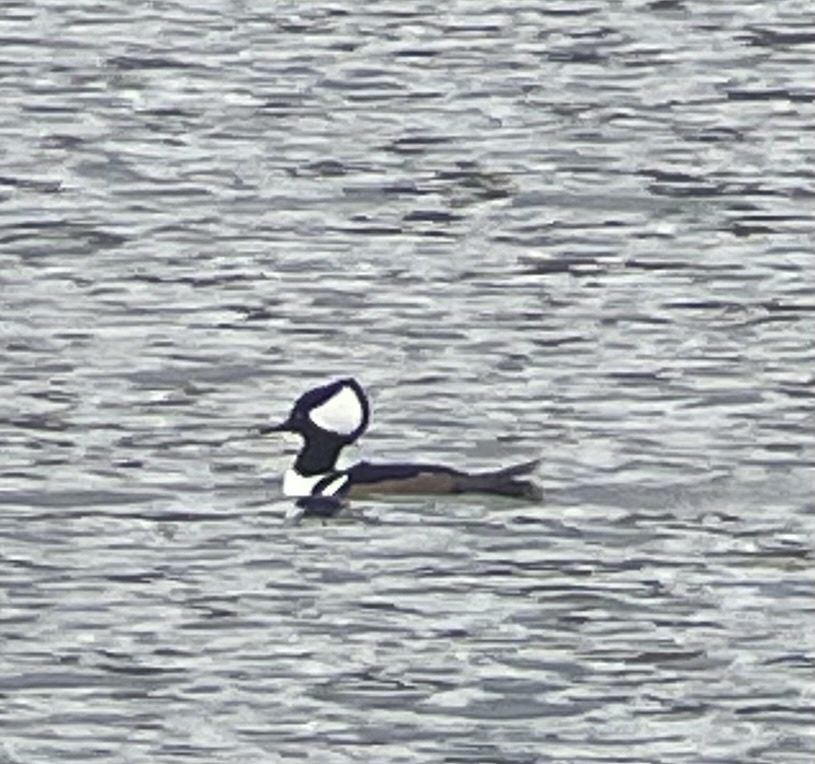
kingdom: Animalia
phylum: Chordata
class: Aves
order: Anseriformes
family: Anatidae
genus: Lophodytes
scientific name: Lophodytes cucullatus
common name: Hooded merganser
